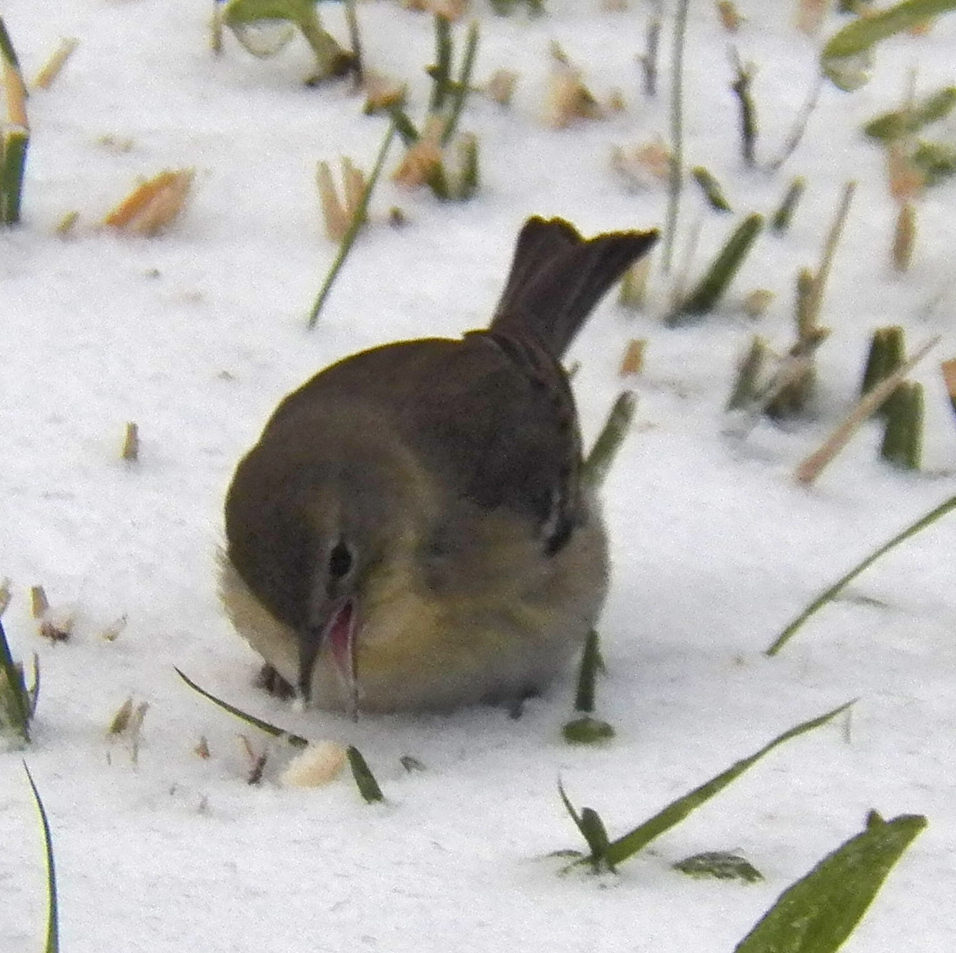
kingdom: Animalia
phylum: Chordata
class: Aves
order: Passeriformes
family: Parulidae
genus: Setophaga
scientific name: Setophaga pinus
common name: Pine warbler
